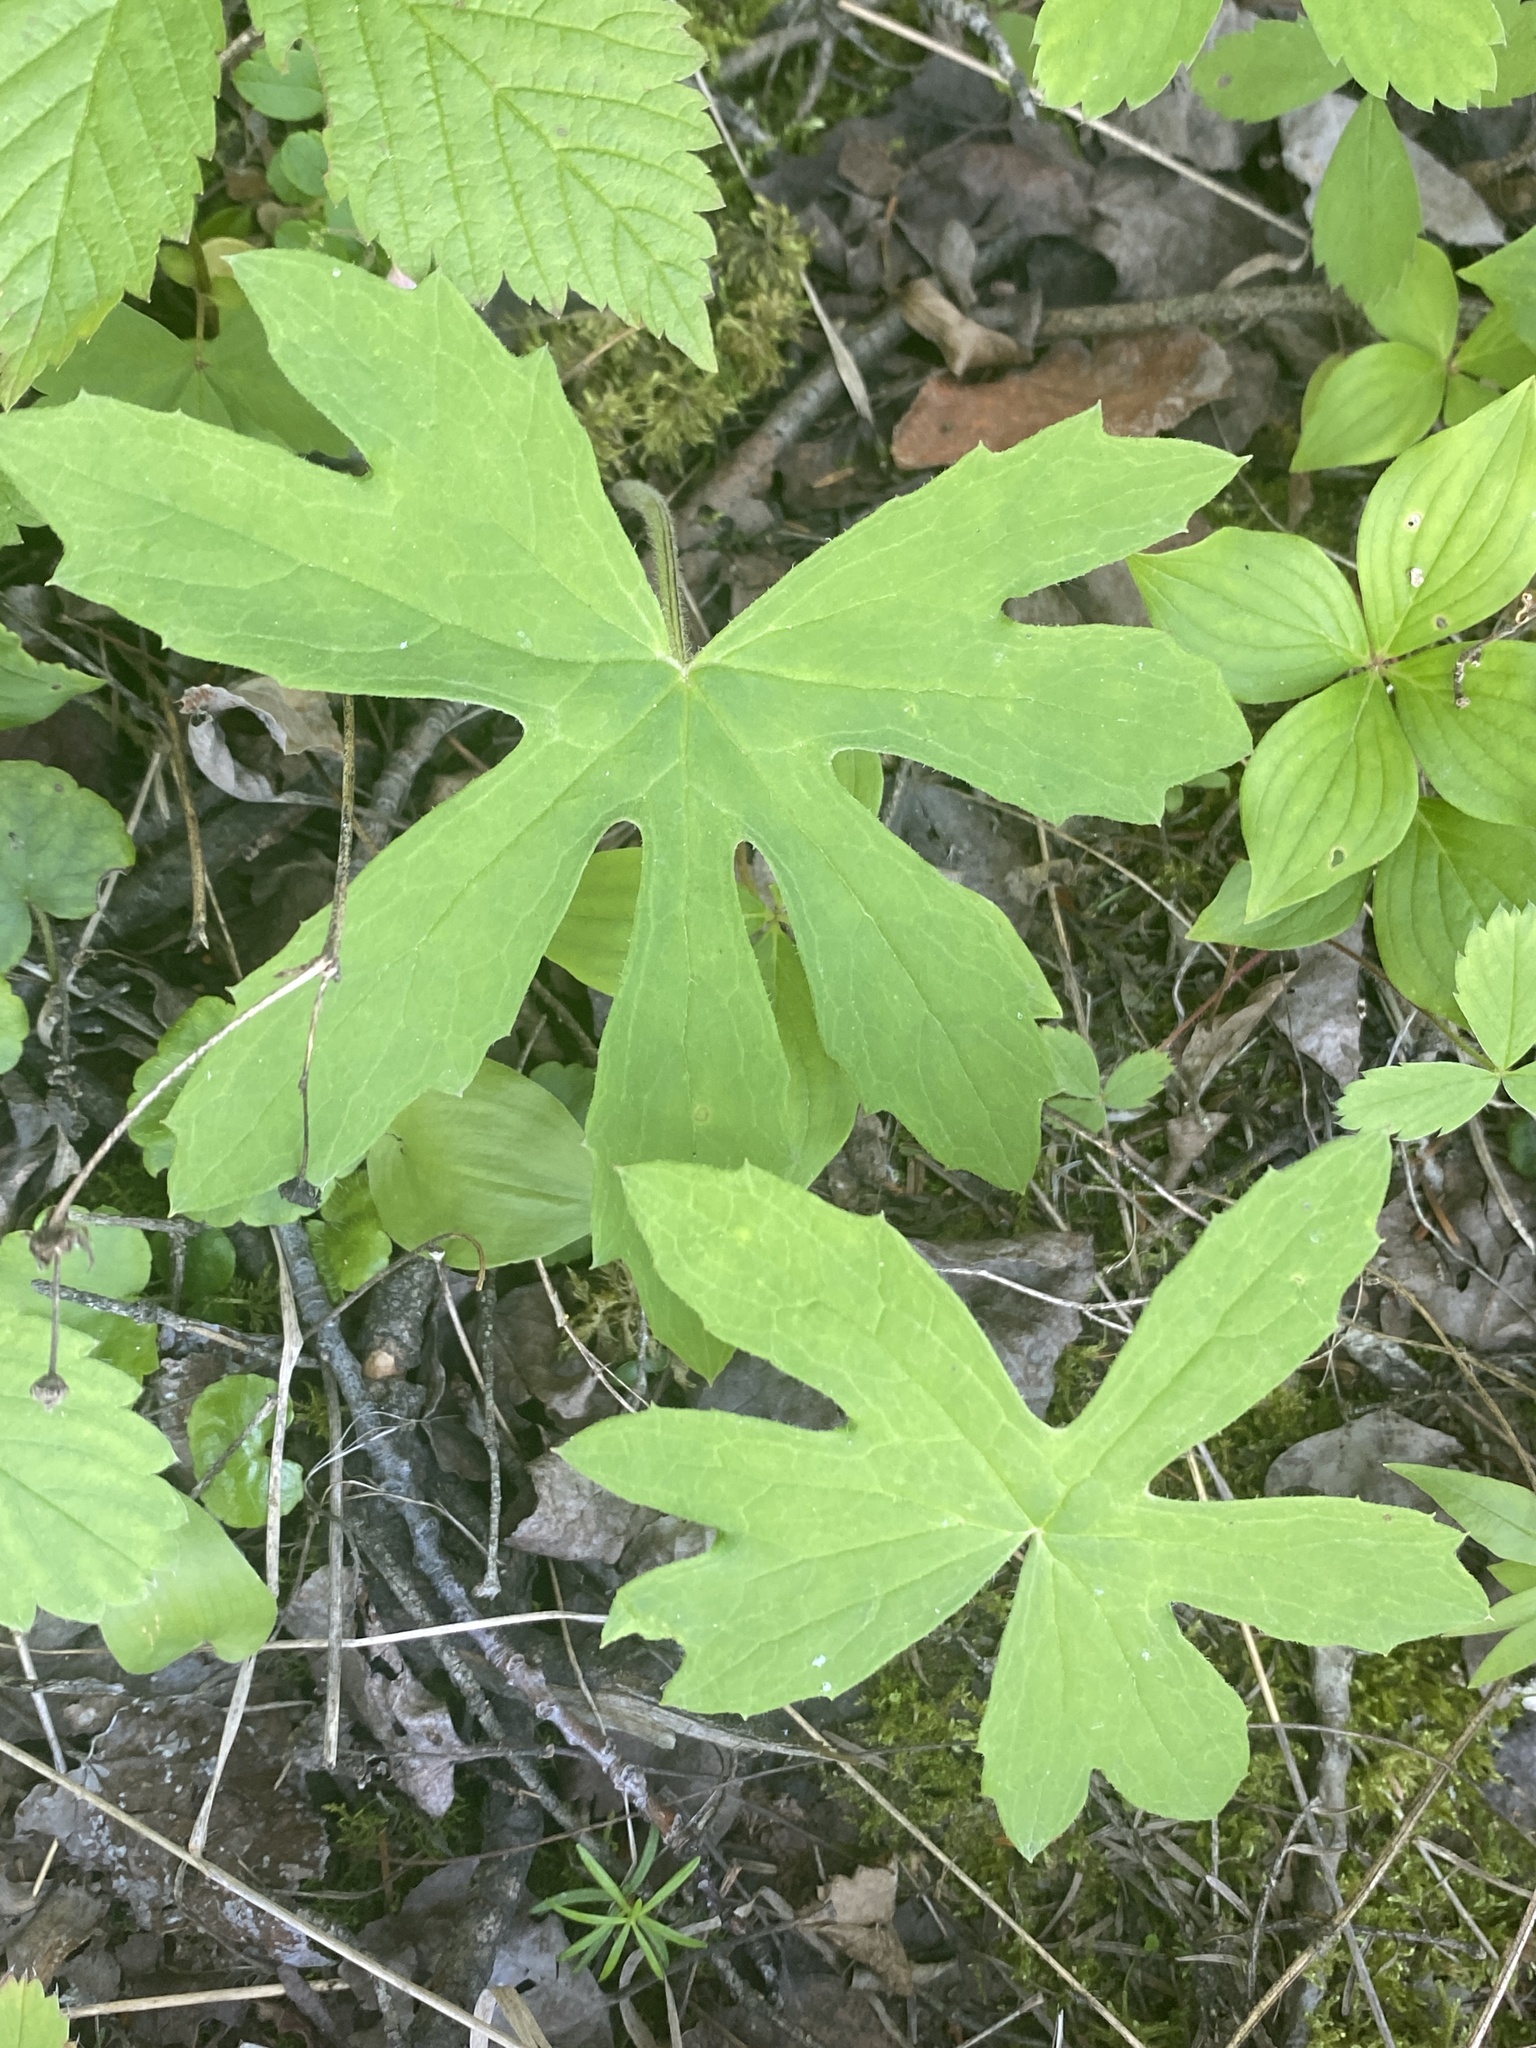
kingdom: Plantae
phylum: Tracheophyta
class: Magnoliopsida
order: Asterales
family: Asteraceae
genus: Petasites
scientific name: Petasites frigidus
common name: Arctic butterbur
